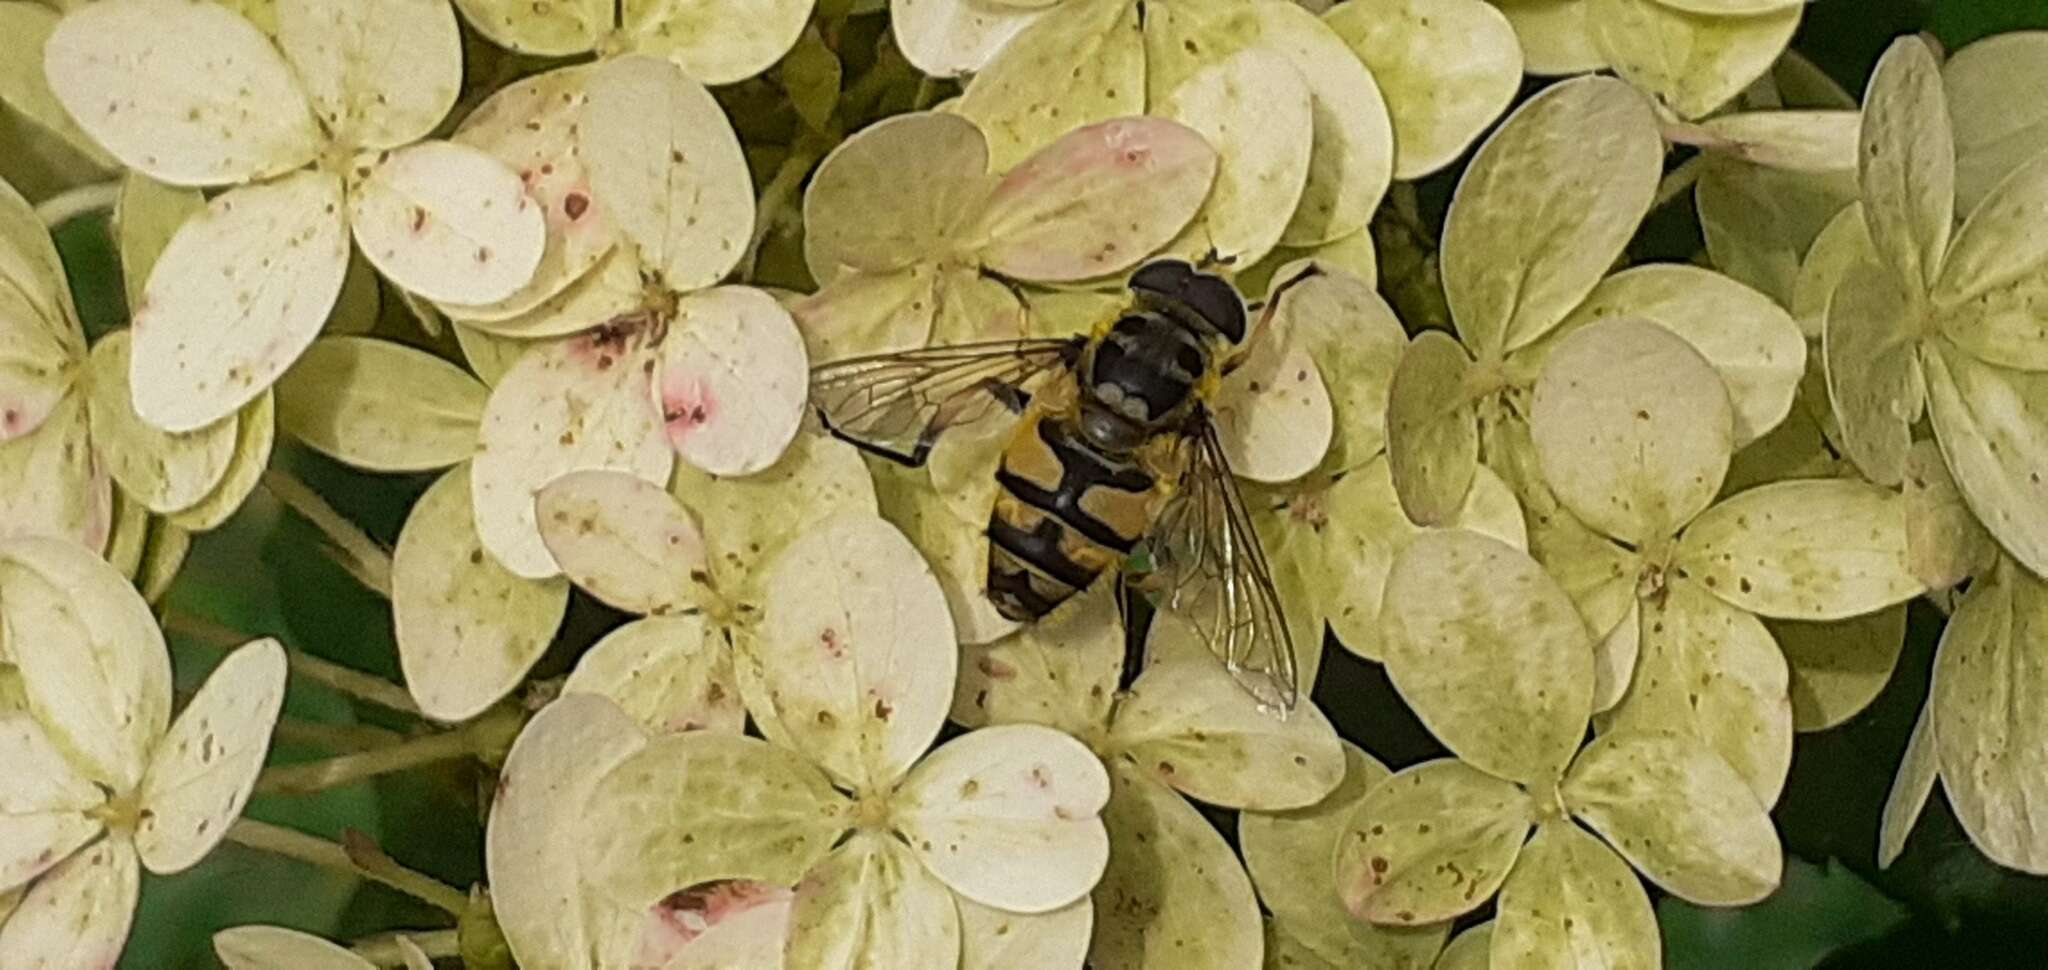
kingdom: Animalia
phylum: Arthropoda
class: Insecta
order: Diptera
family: Syrphidae
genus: Myathropa
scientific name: Myathropa florea
